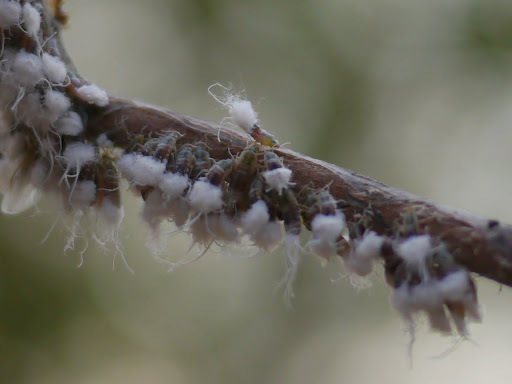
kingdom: Animalia
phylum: Arthropoda
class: Insecta
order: Hemiptera
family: Aphididae
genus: Grylloprociphilus
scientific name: Grylloprociphilus imbricator
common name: Beech blight aphid
